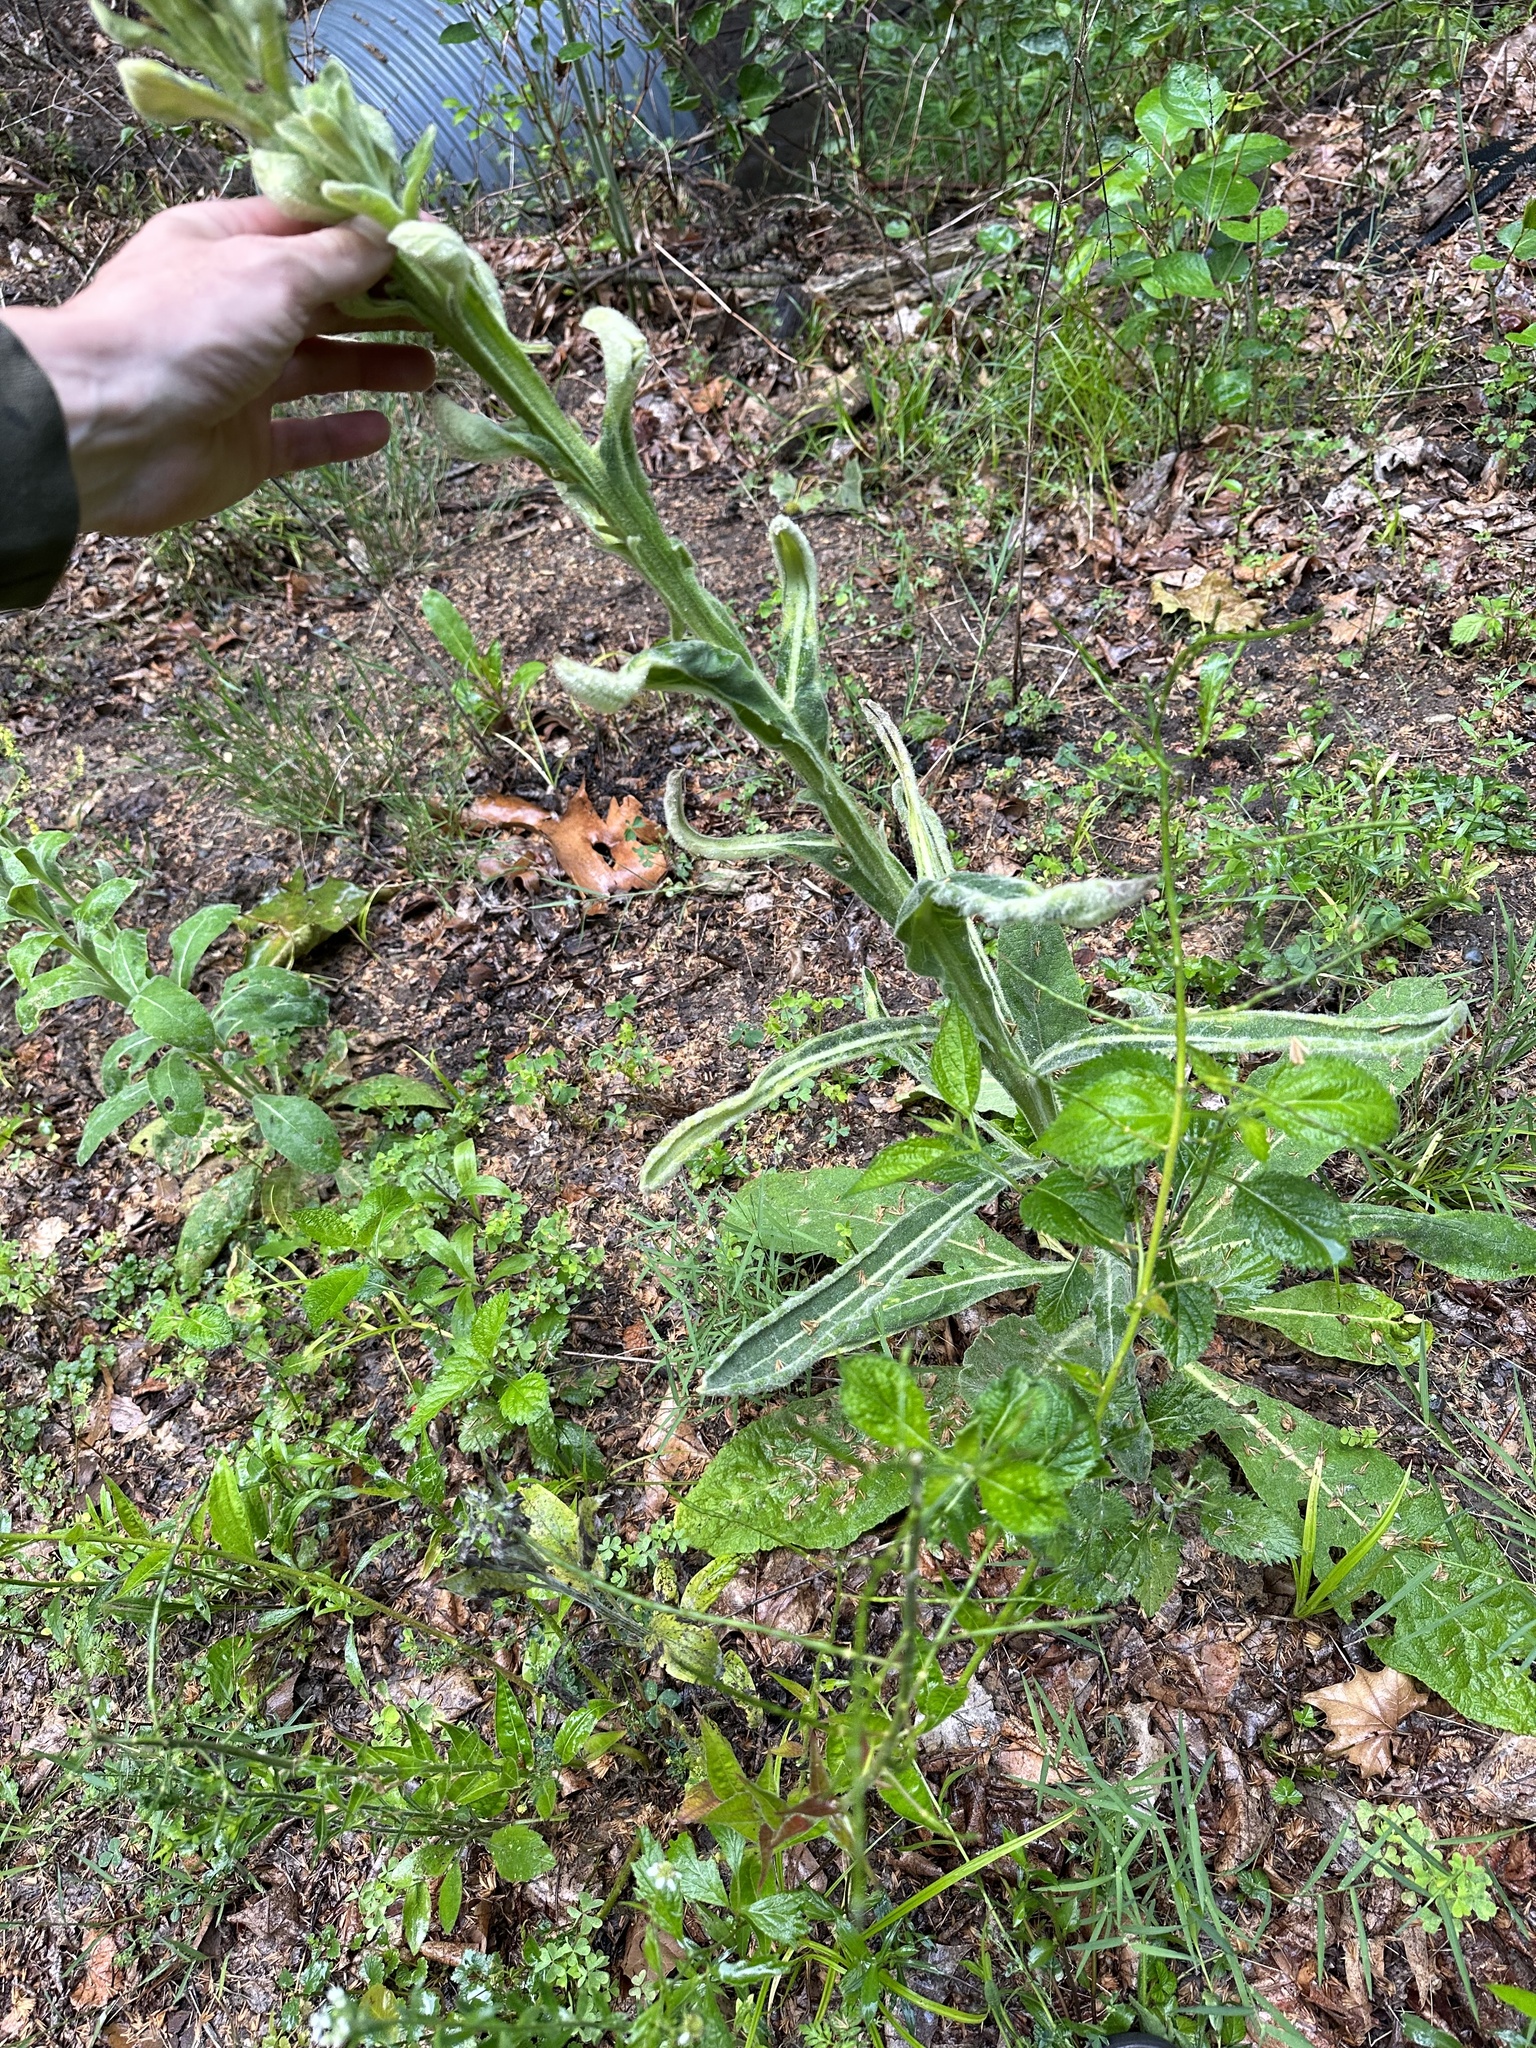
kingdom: Plantae
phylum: Tracheophyta
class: Magnoliopsida
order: Lamiales
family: Scrophulariaceae
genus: Verbascum
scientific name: Verbascum thapsus
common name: Common mullein
